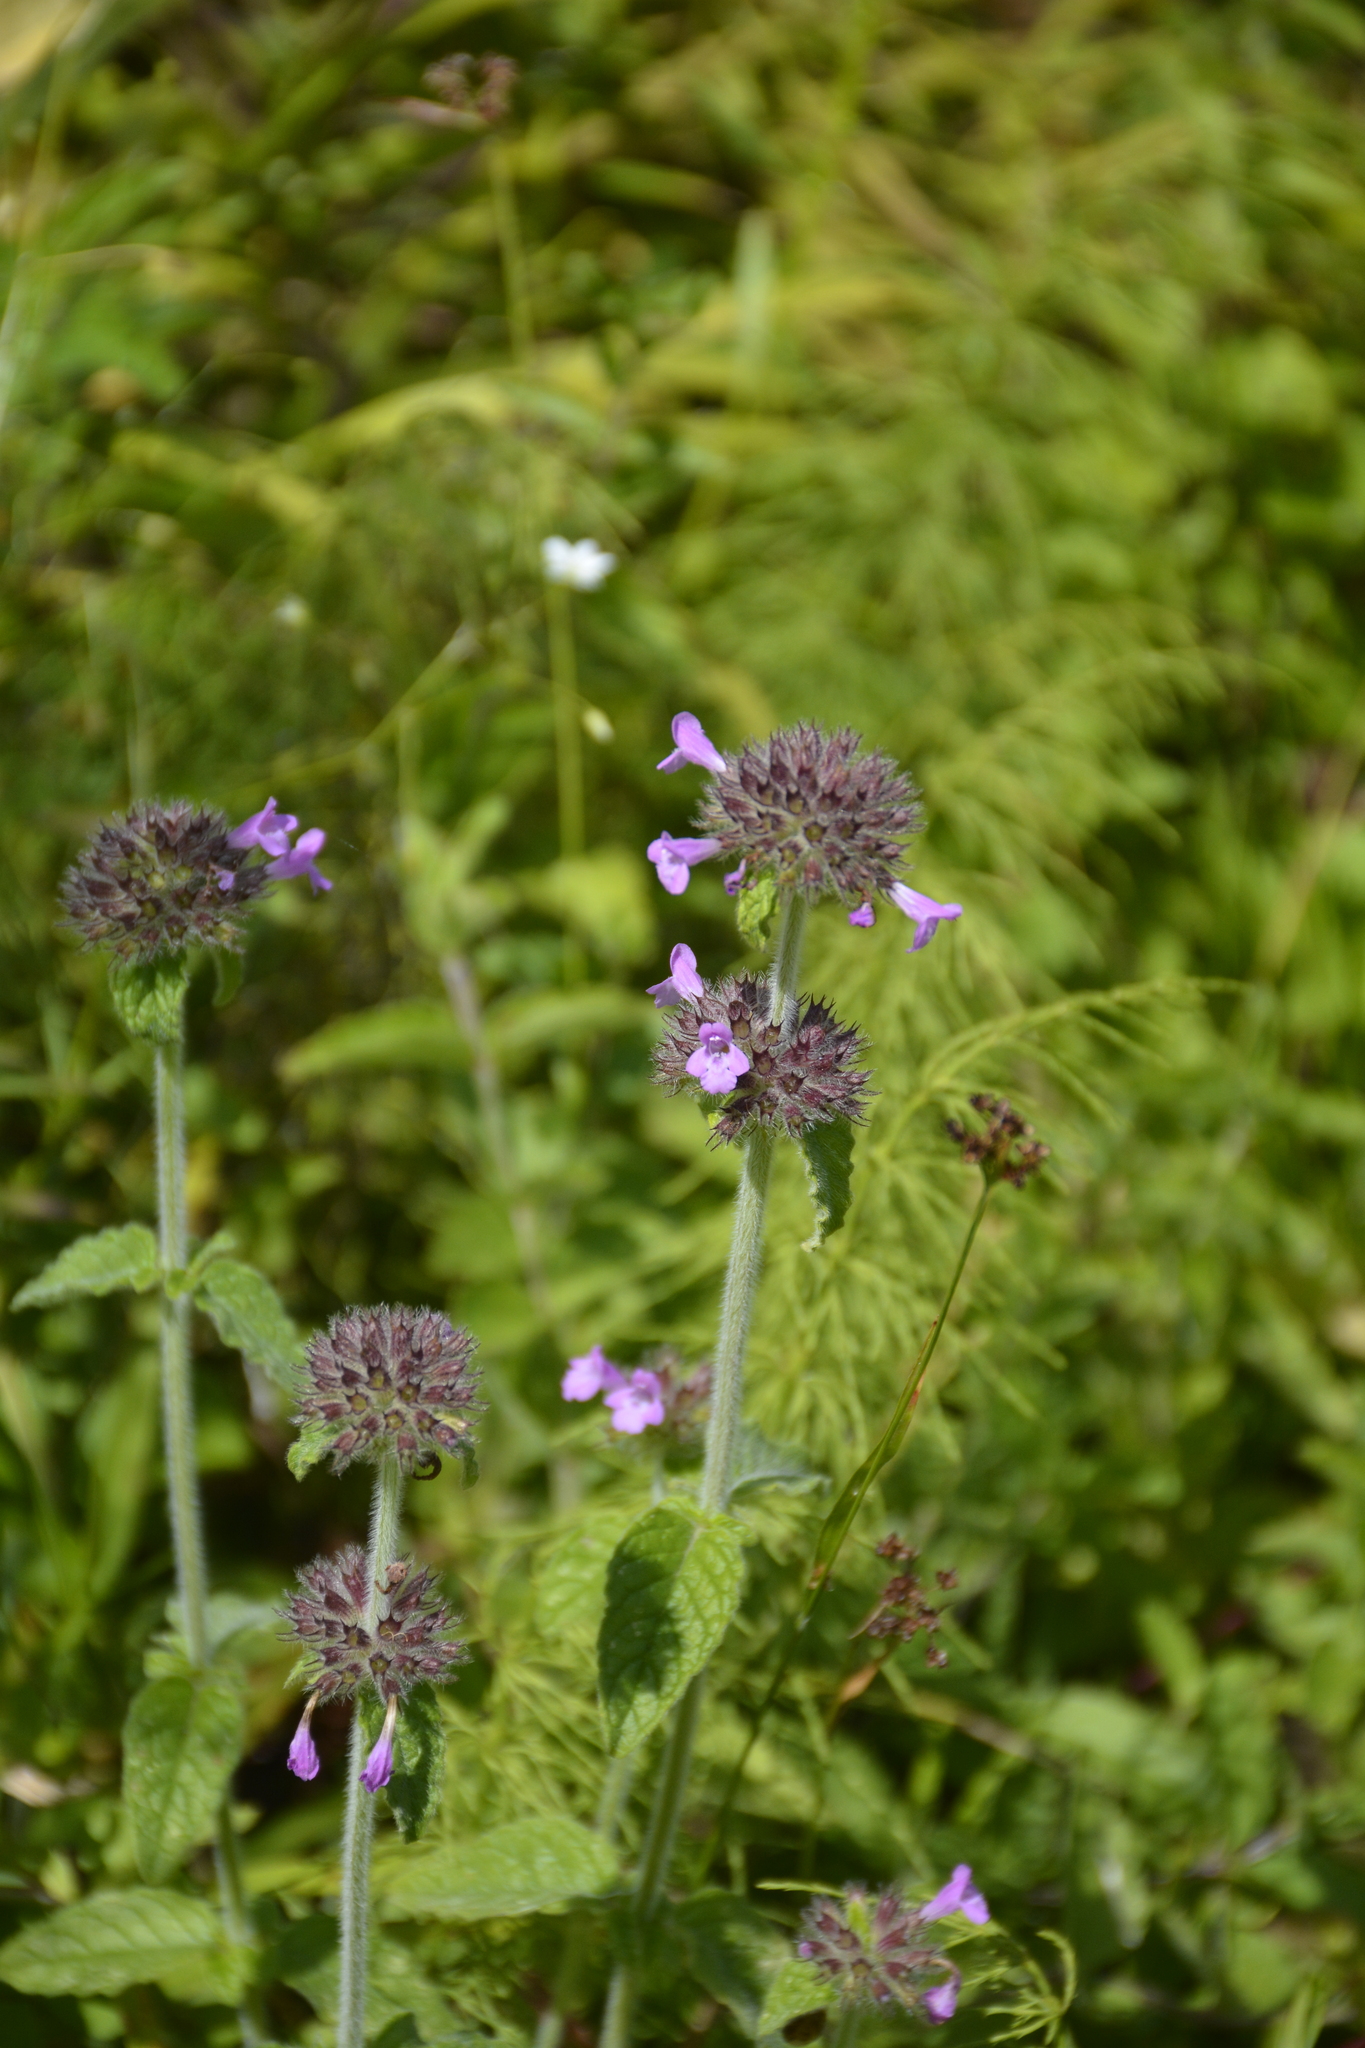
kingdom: Plantae
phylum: Tracheophyta
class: Magnoliopsida
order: Lamiales
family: Lamiaceae
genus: Clinopodium
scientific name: Clinopodium vulgare
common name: Wild basil
